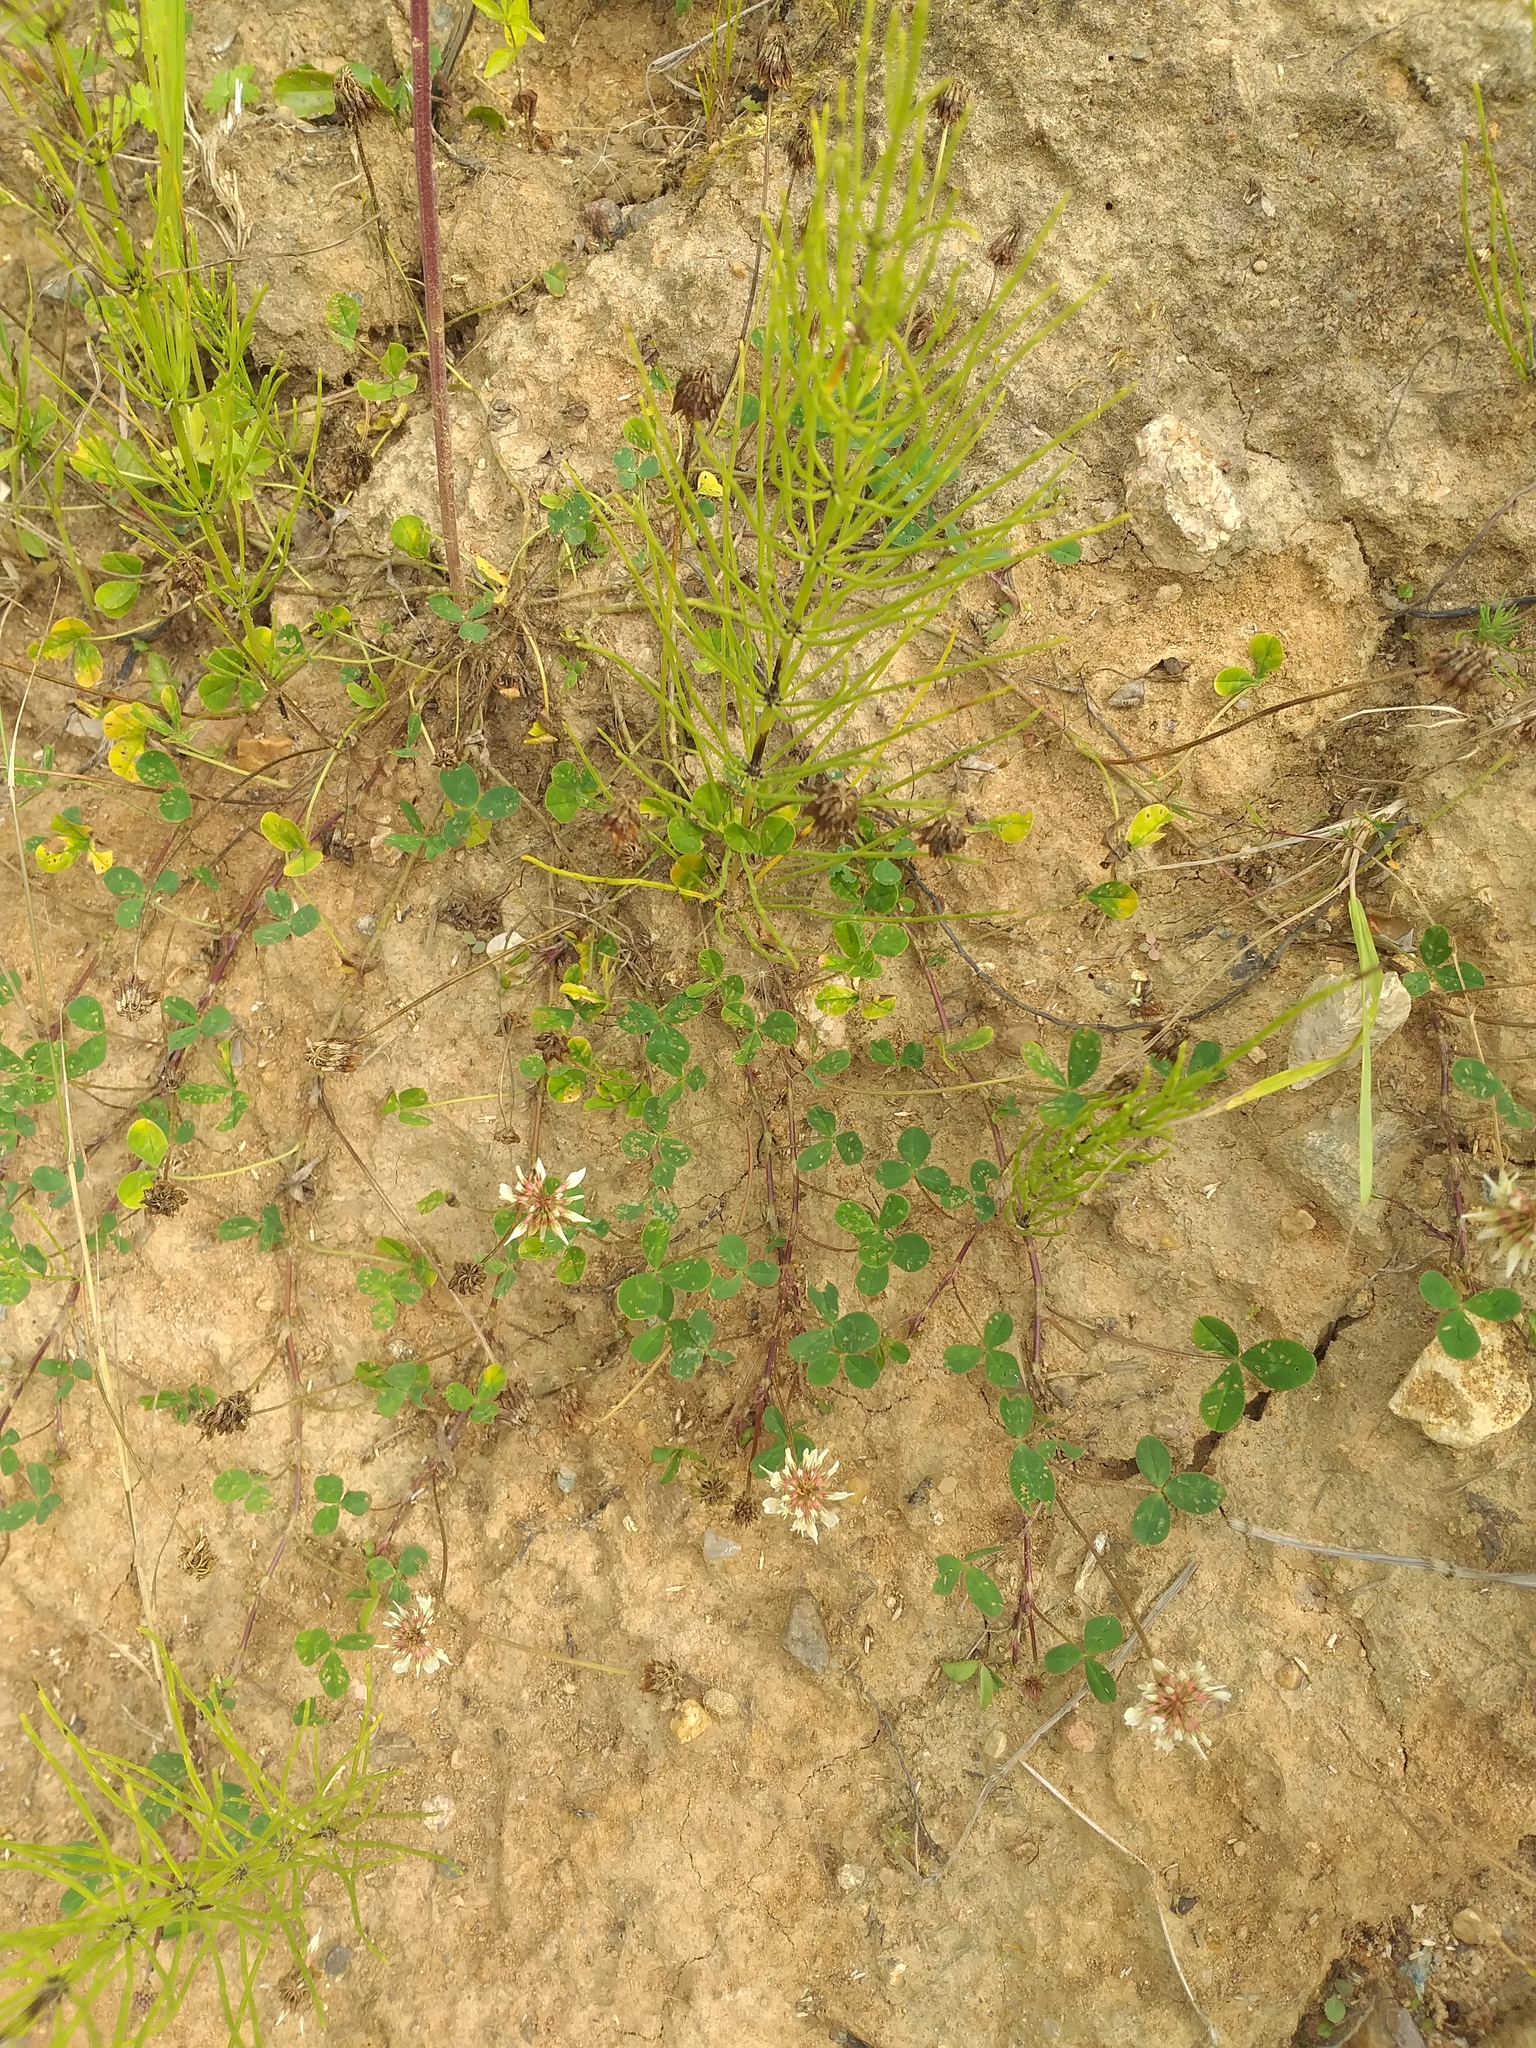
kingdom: Plantae
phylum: Tracheophyta
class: Magnoliopsida
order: Fabales
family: Fabaceae
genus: Trifolium
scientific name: Trifolium repens
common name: White clover
